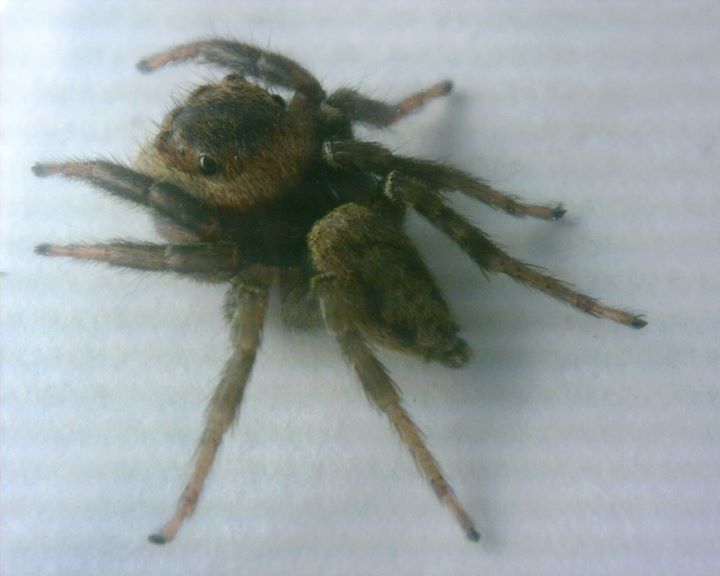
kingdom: Animalia
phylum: Arthropoda
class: Arachnida
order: Araneae
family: Salticidae
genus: Hasarius
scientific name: Hasarius adansoni
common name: Jumping spider
